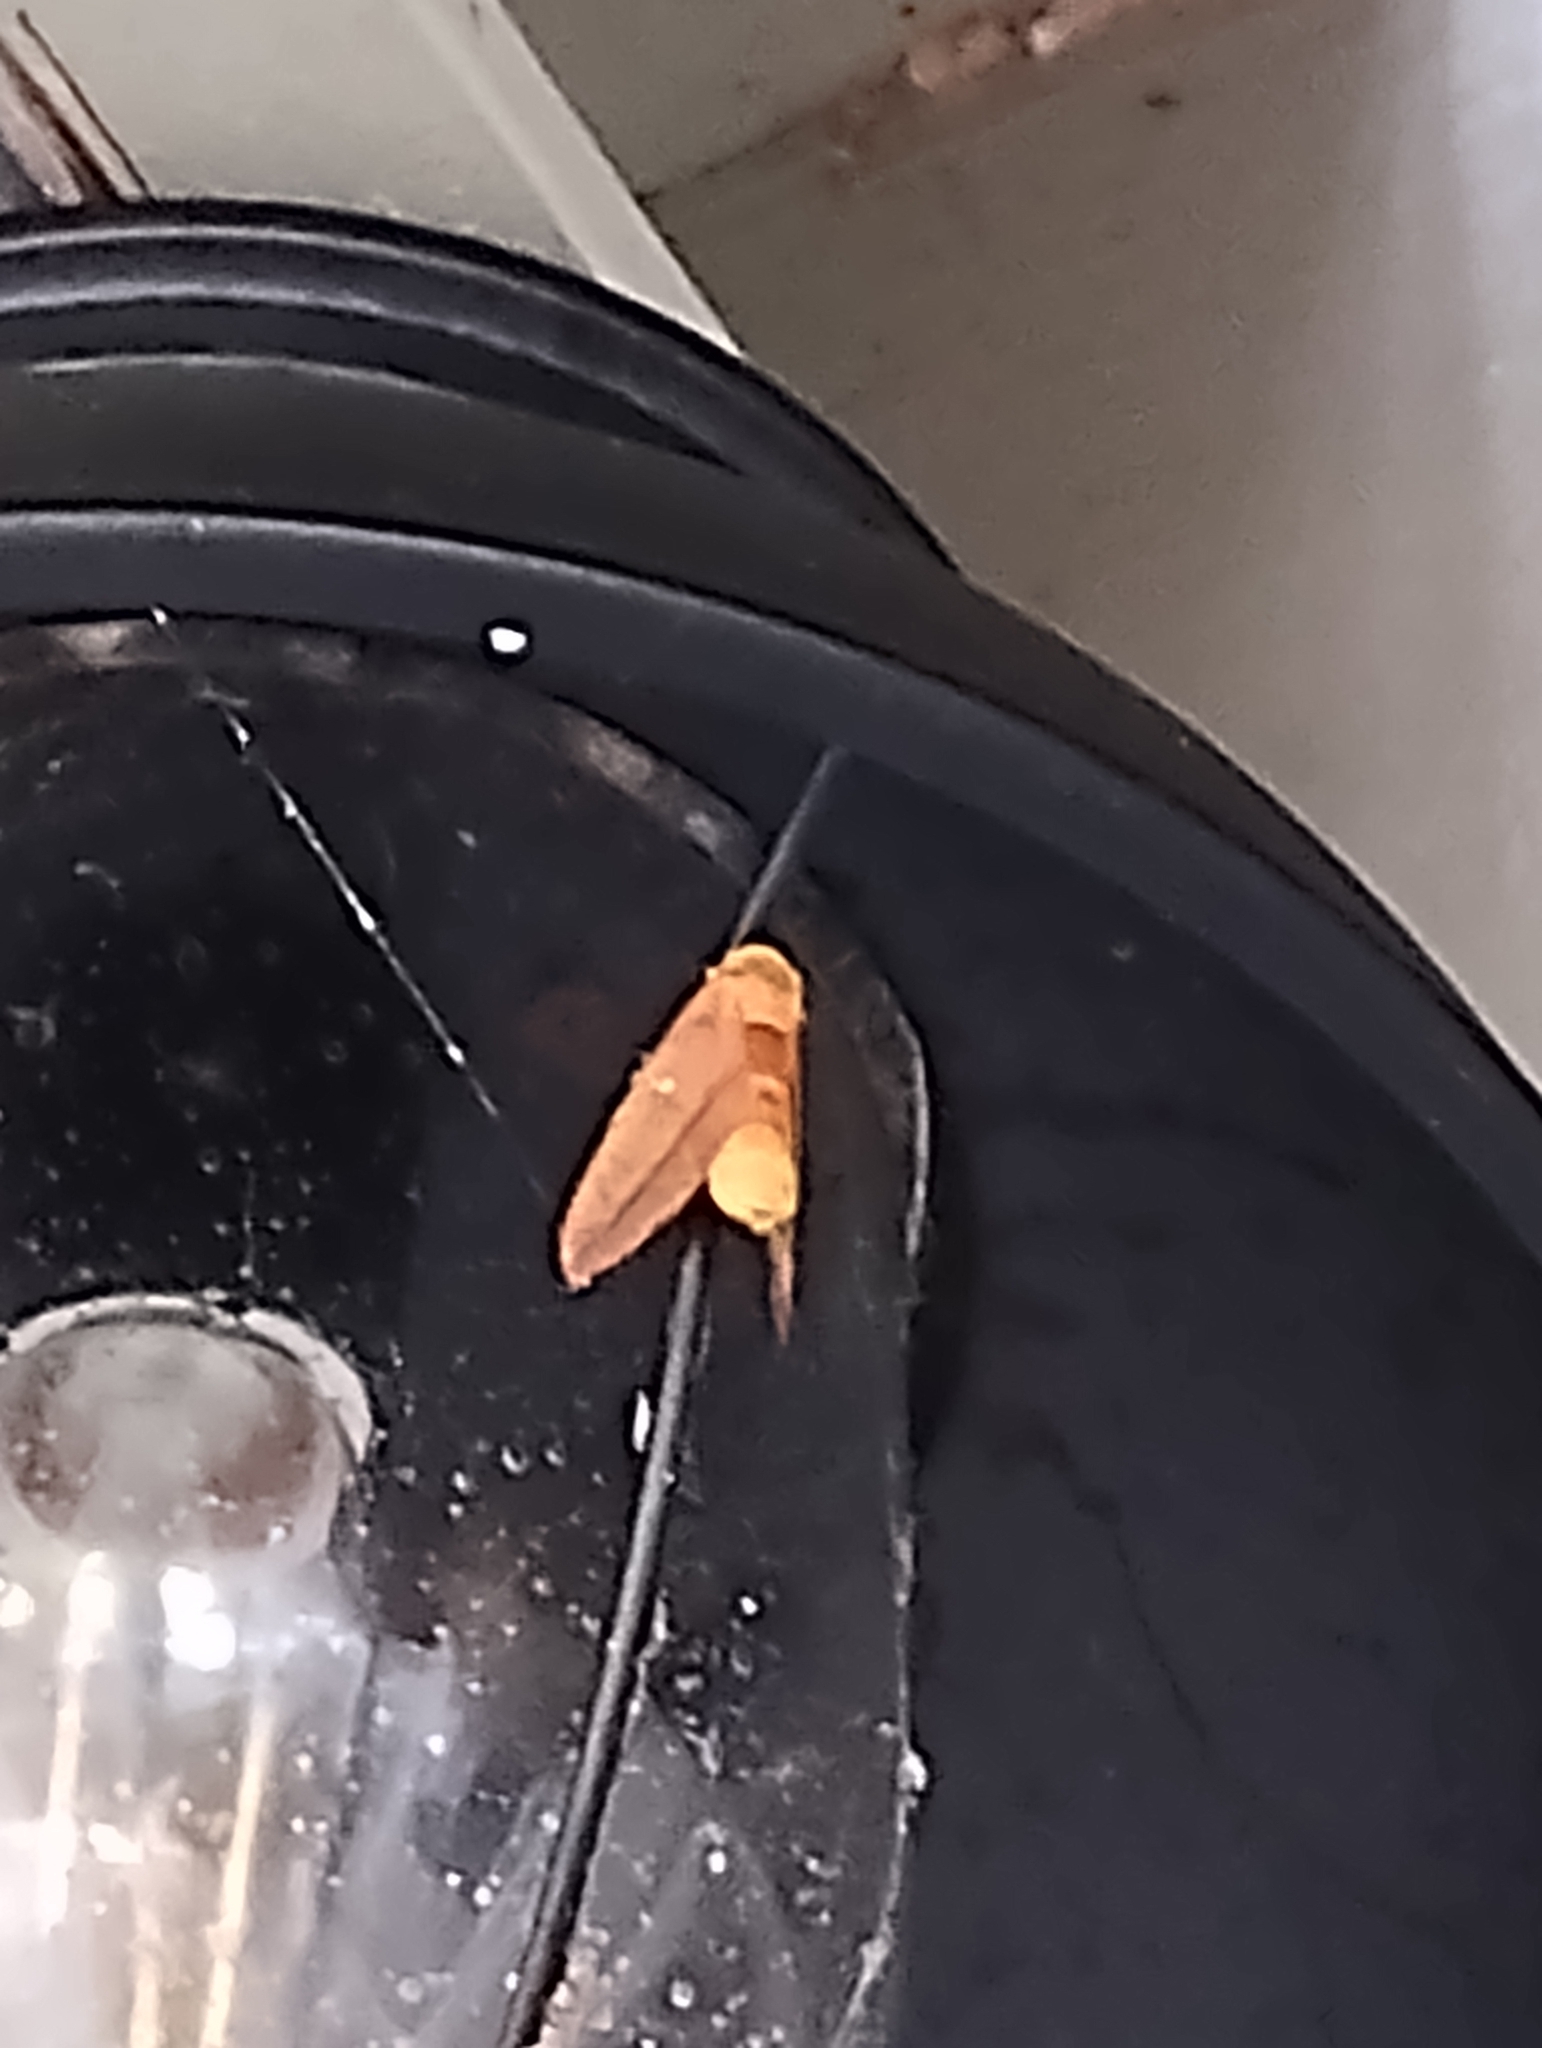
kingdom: Animalia
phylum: Arthropoda
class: Insecta
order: Lepidoptera
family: Saturniidae
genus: Anisota
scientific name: Anisota virginiensis
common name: Pink striped oakworm moth
